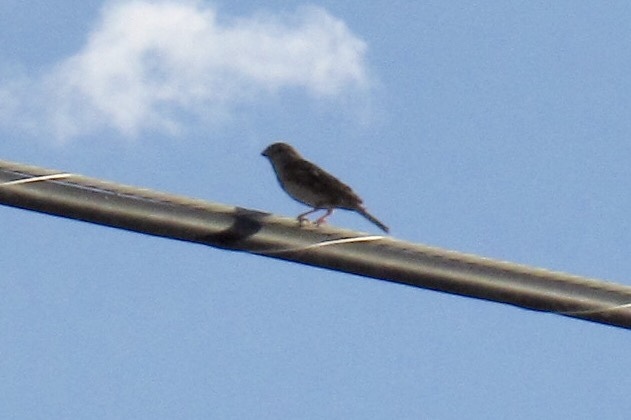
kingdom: Animalia
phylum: Chordata
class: Aves
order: Passeriformes
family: Passeridae
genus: Passer
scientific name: Passer domesticus
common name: House sparrow
